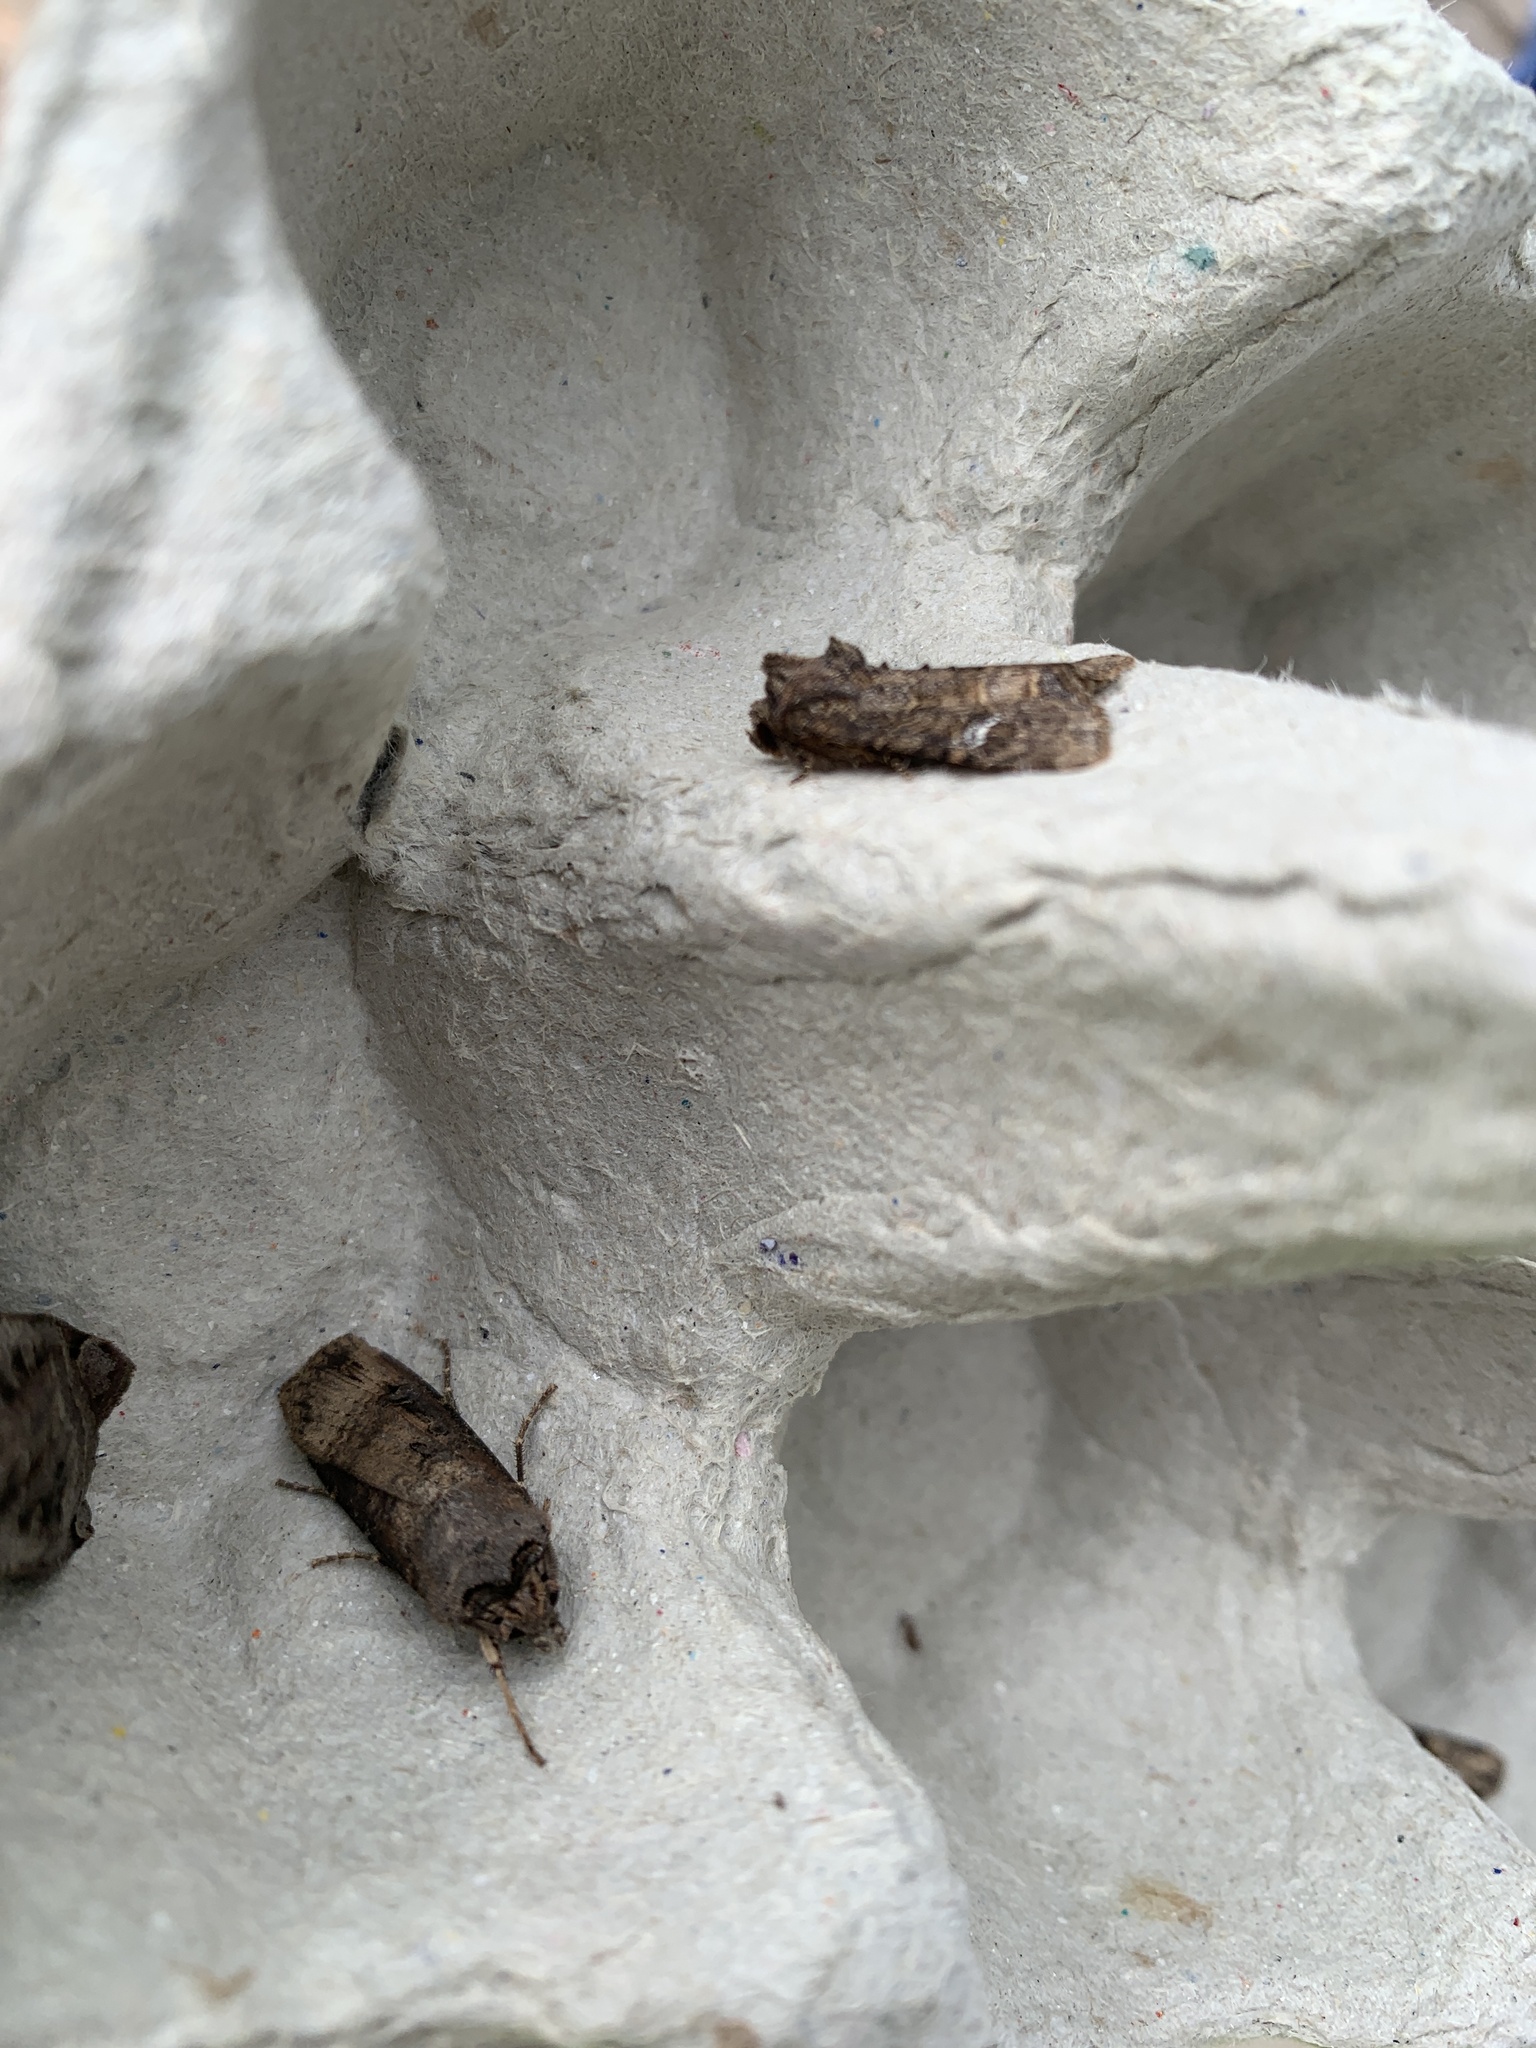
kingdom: Animalia
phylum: Arthropoda
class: Insecta
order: Lepidoptera
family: Noctuidae
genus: Agrotis
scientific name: Agrotis ipsilon
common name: Dark sword-grass
